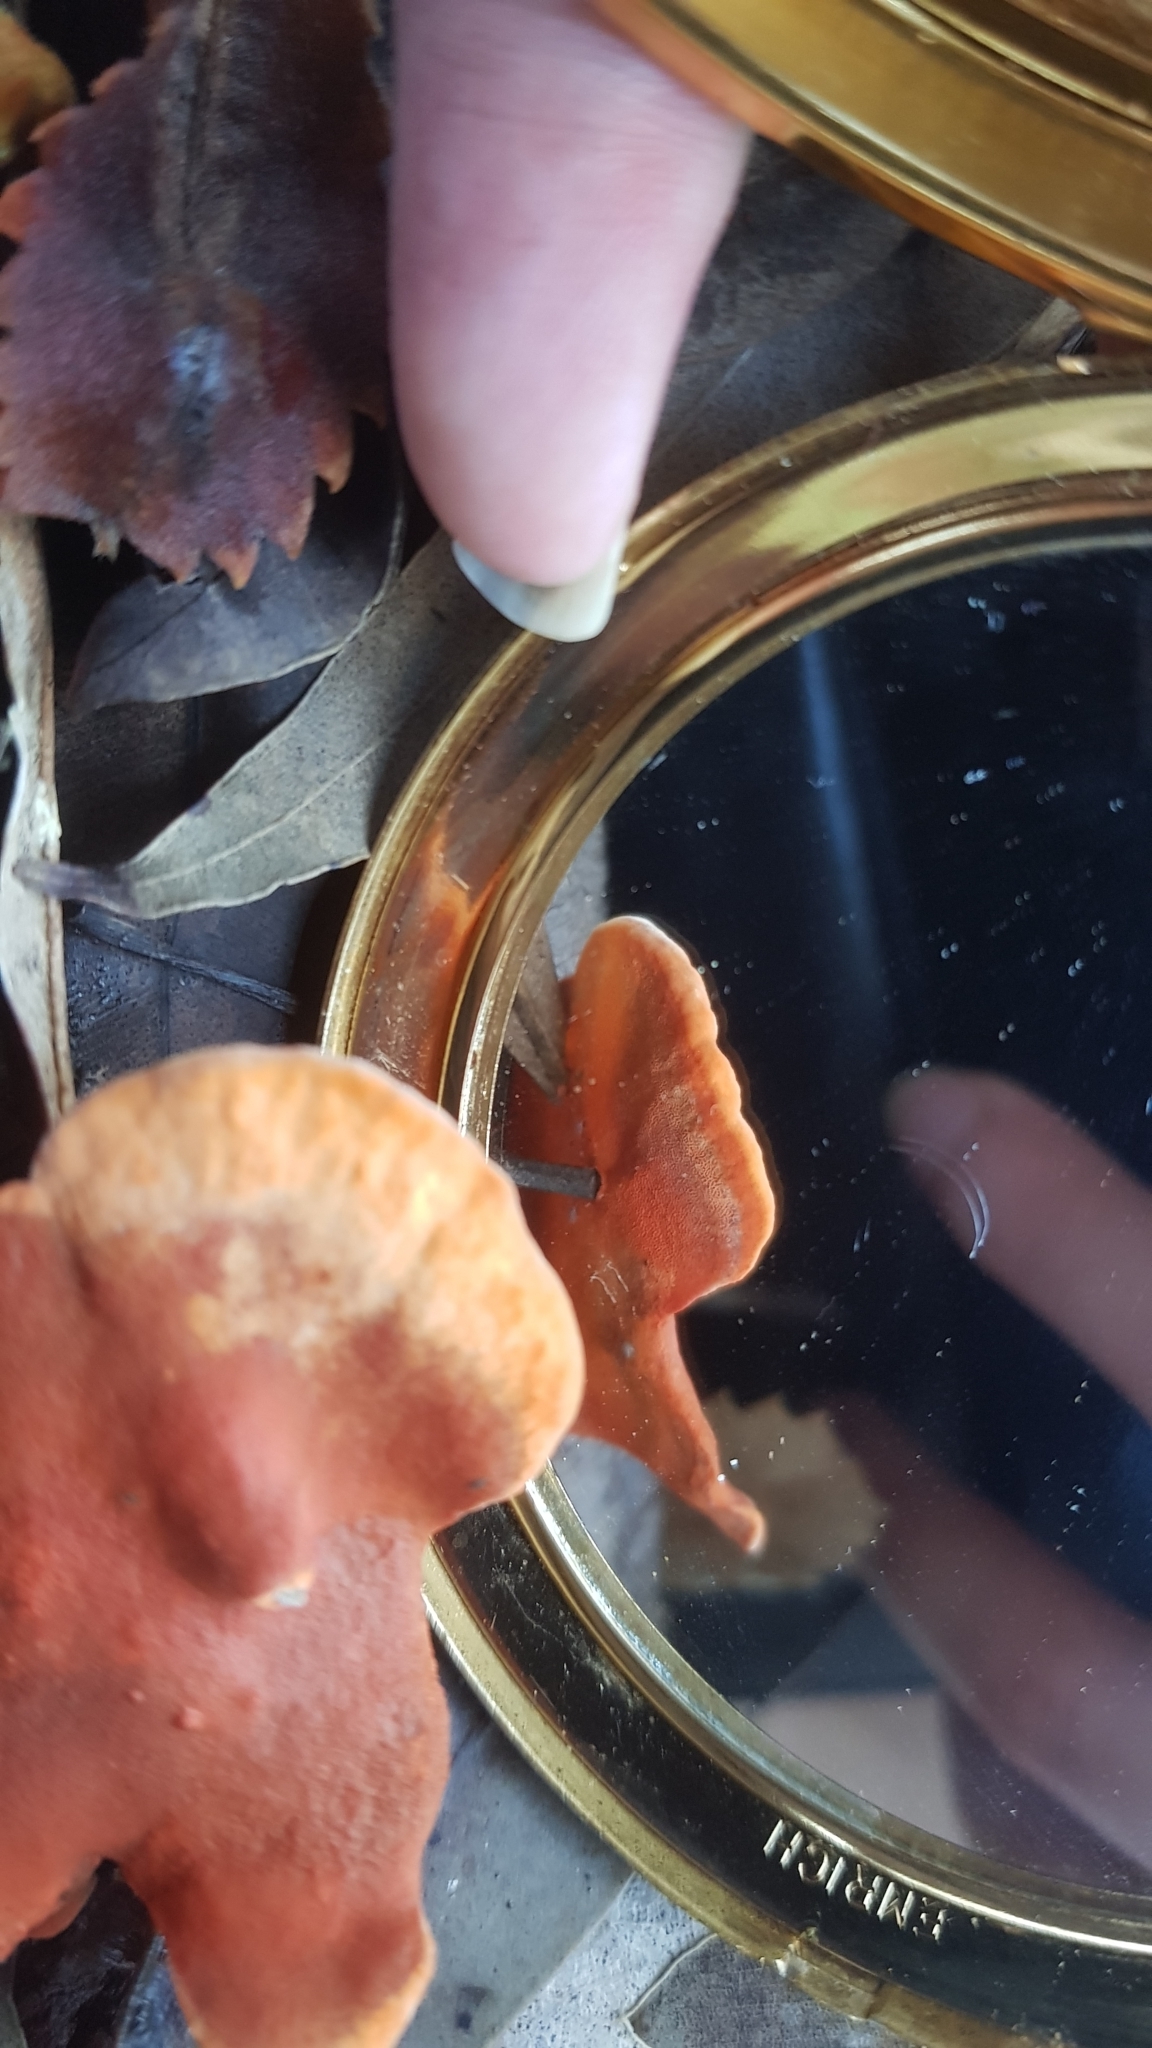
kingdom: Fungi
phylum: Basidiomycota
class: Agaricomycetes
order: Polyporales
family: Polyporaceae
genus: Trametes
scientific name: Trametes coccinea
